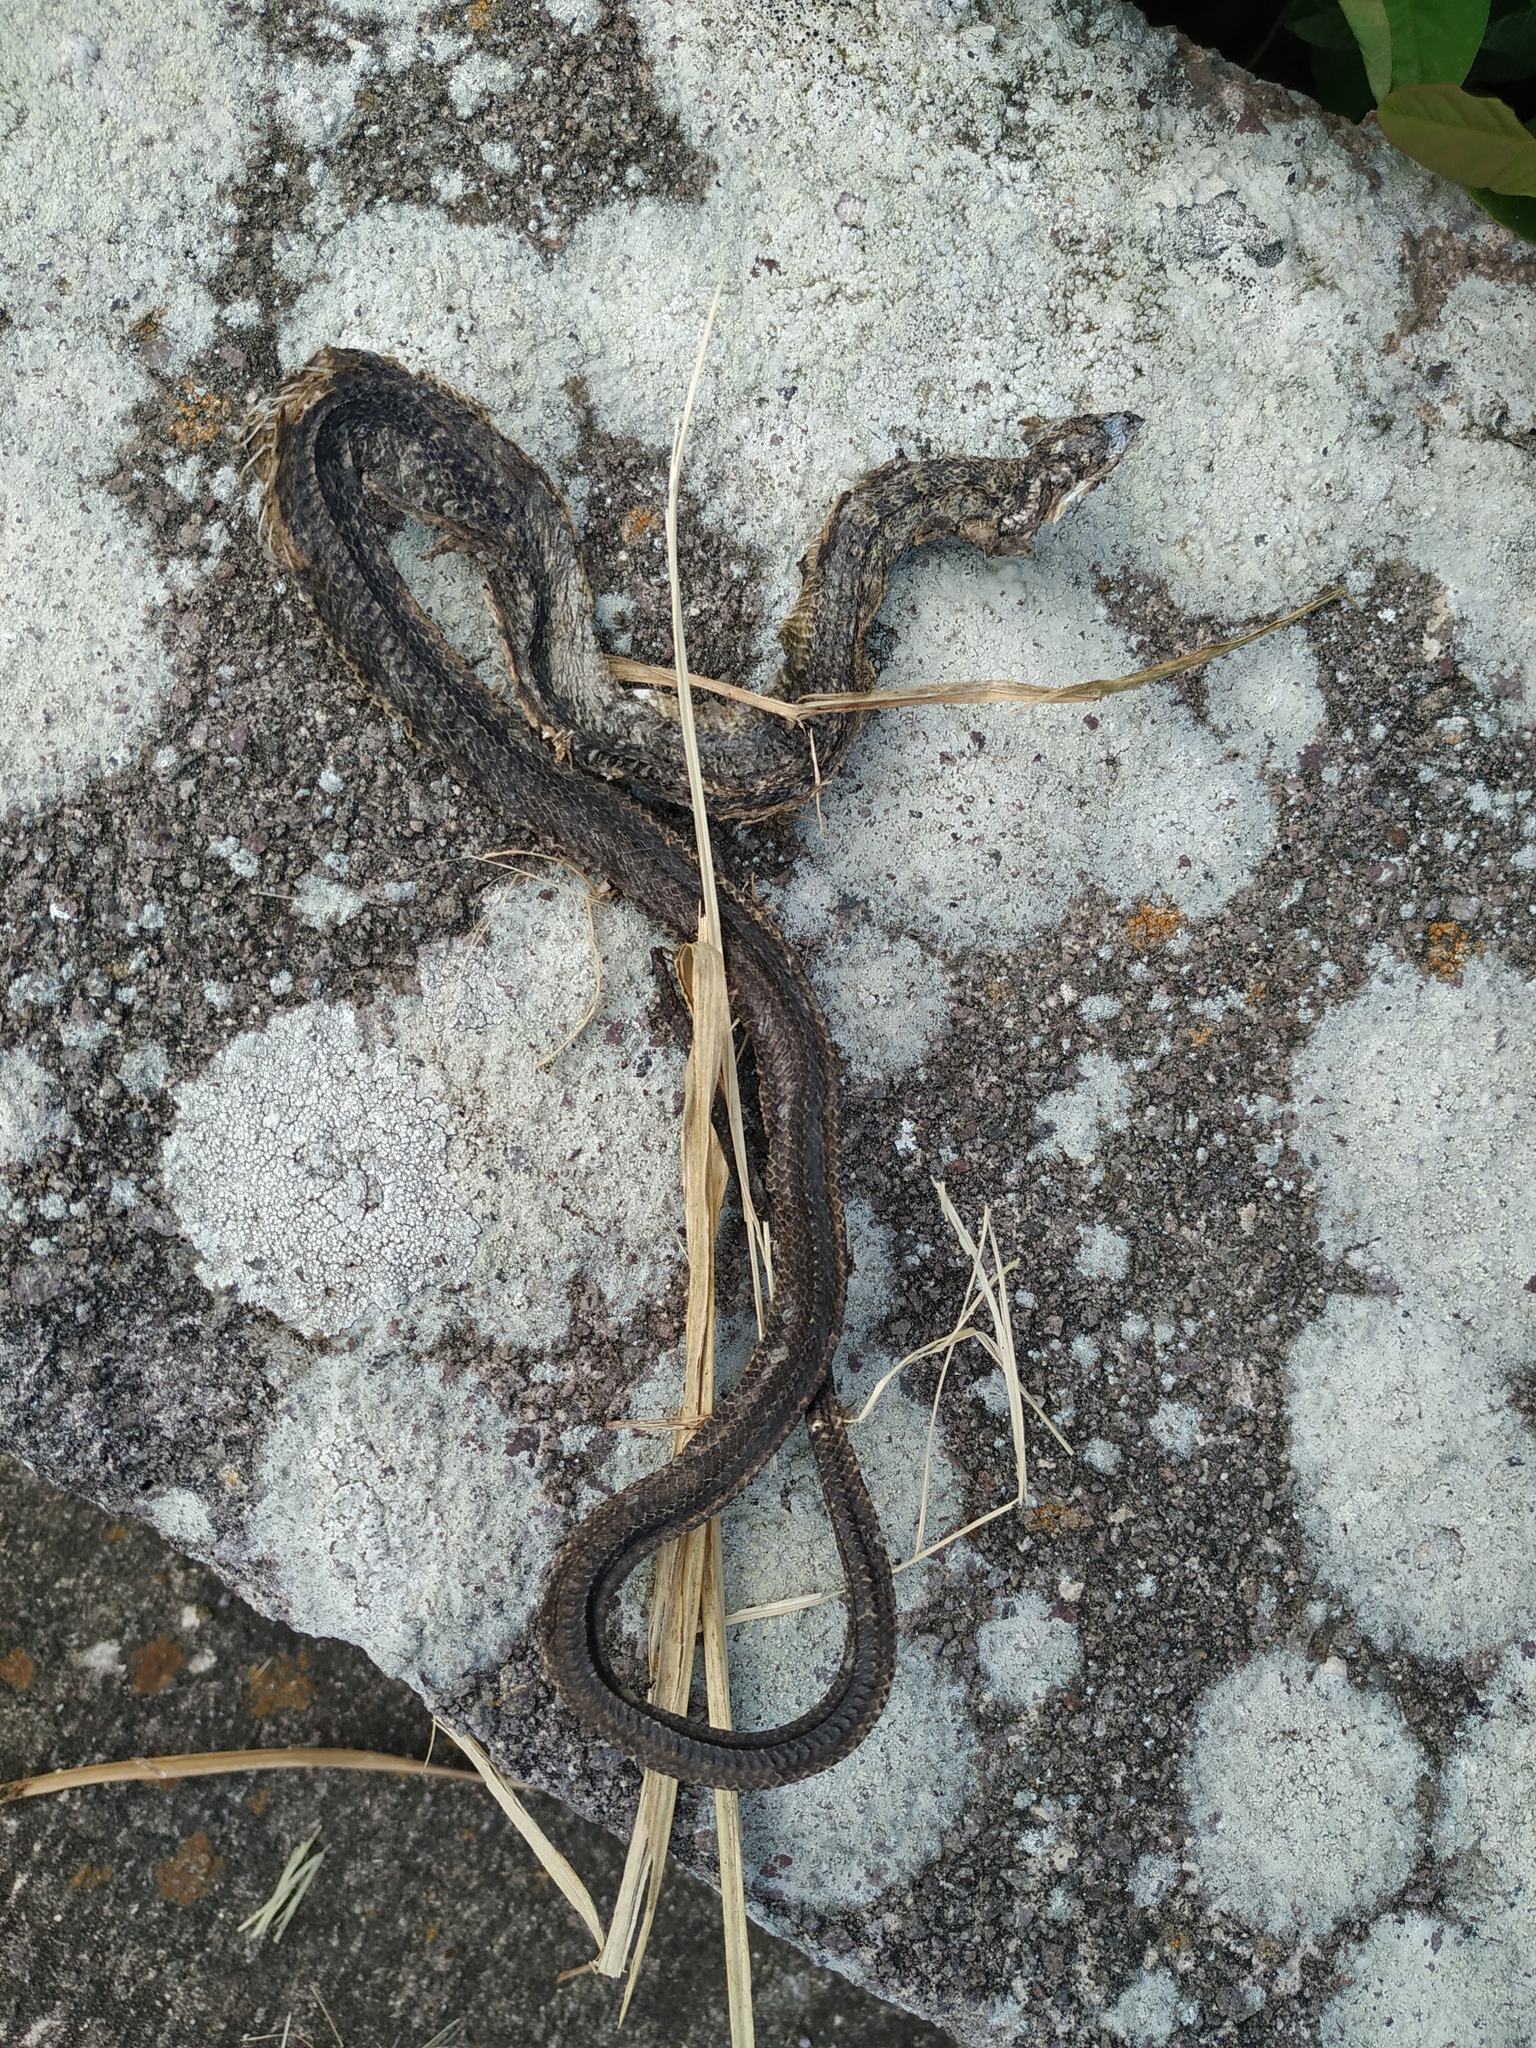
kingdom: Animalia
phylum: Chordata
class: Squamata
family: Colubridae
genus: Alsophis
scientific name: Alsophis rufiventris
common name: Orange-bellied racer
